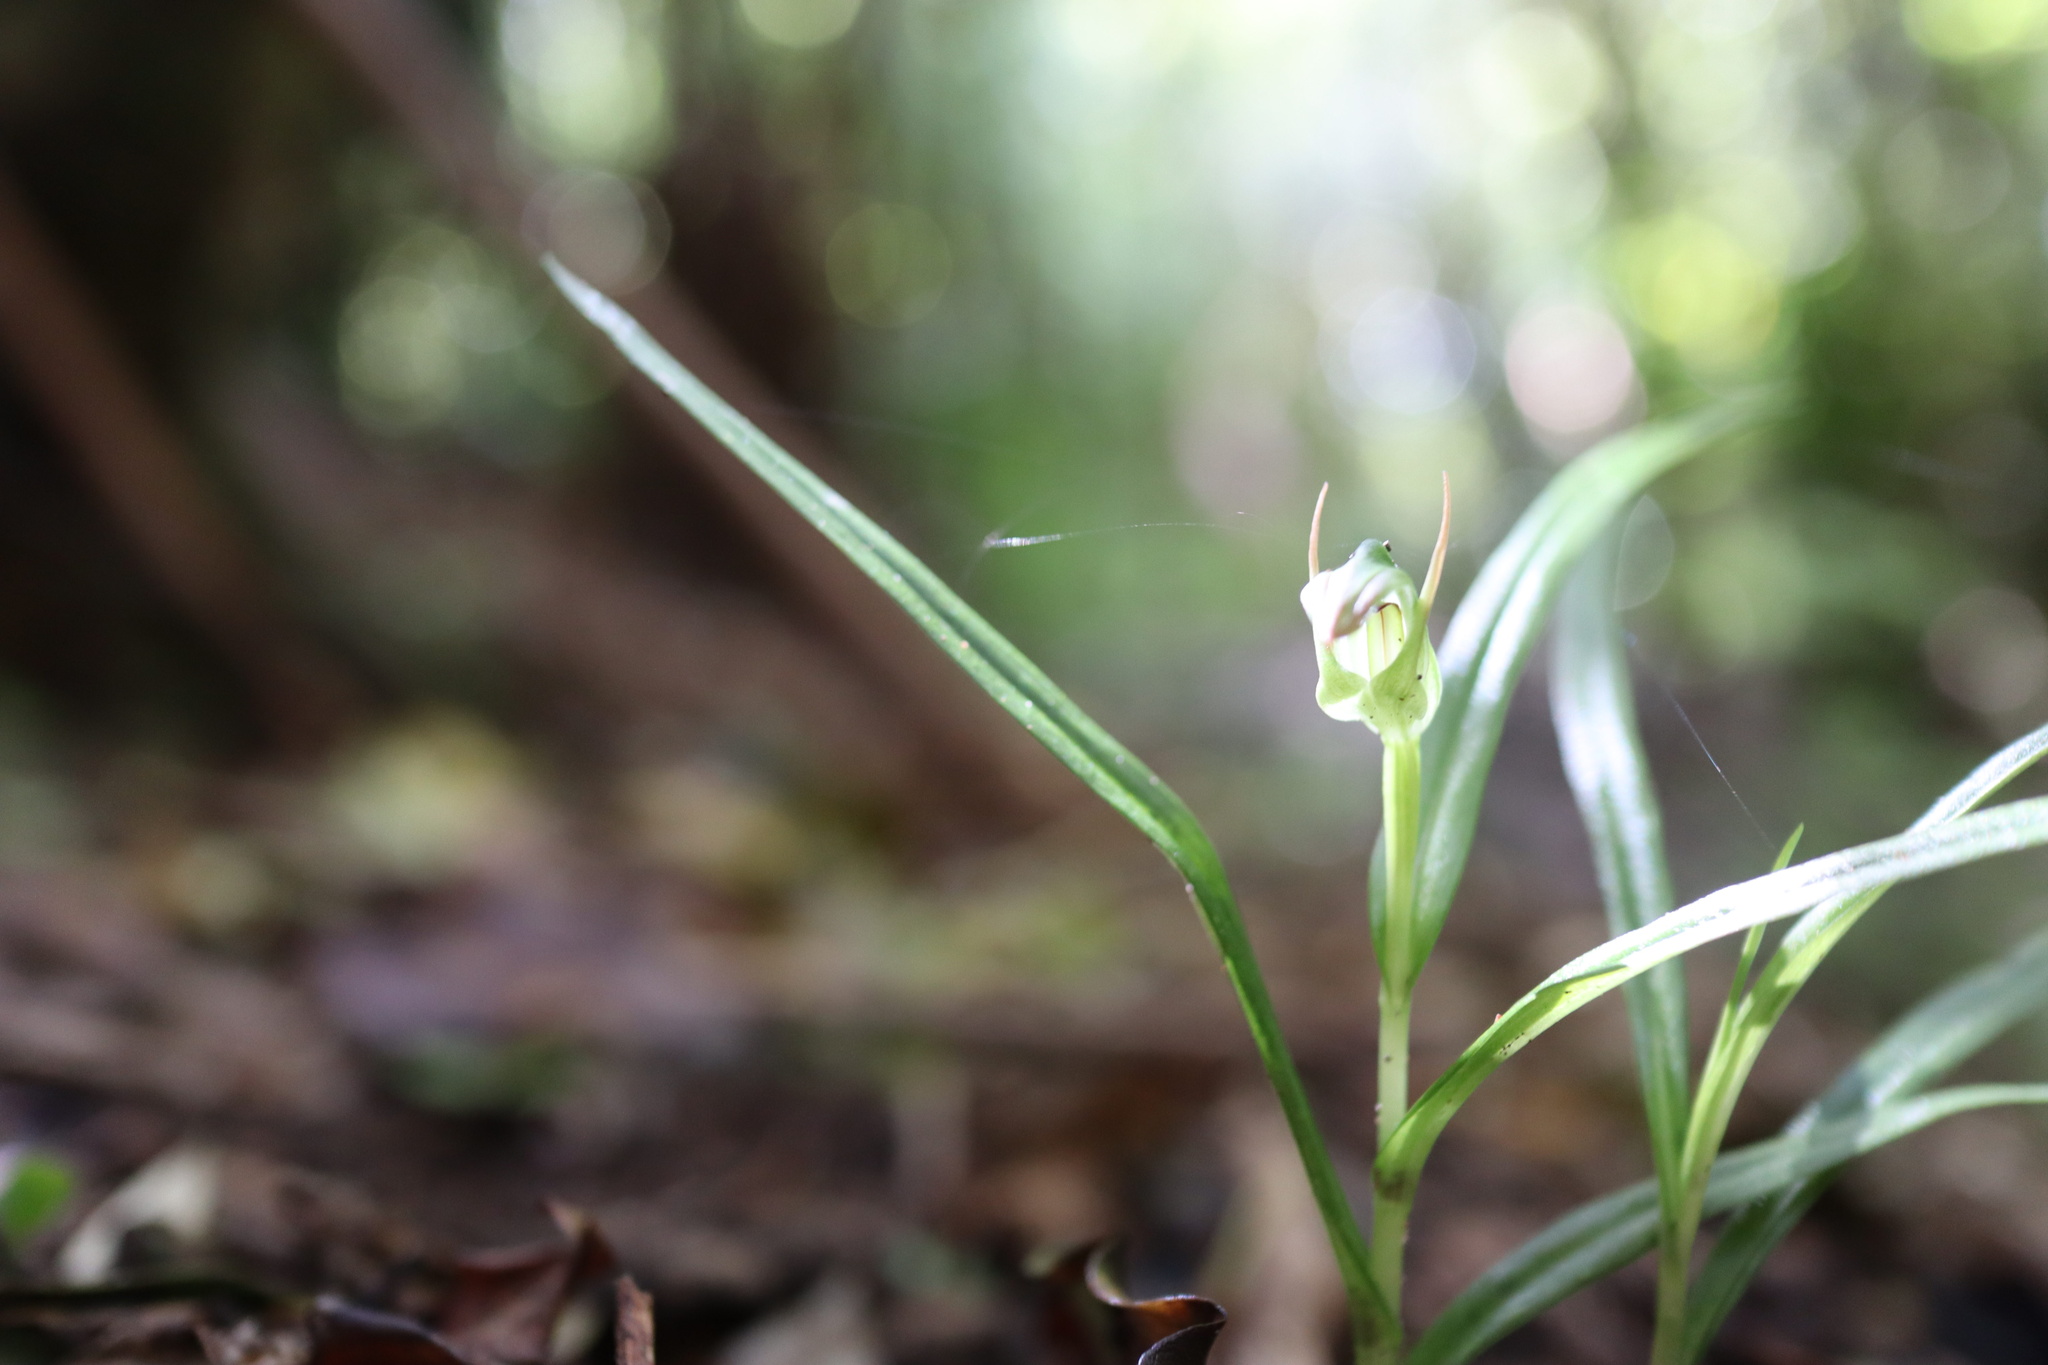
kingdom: Plantae
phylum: Tracheophyta
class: Liliopsida
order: Asparagales
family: Orchidaceae
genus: Pterostylis
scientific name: Pterostylis graminea
